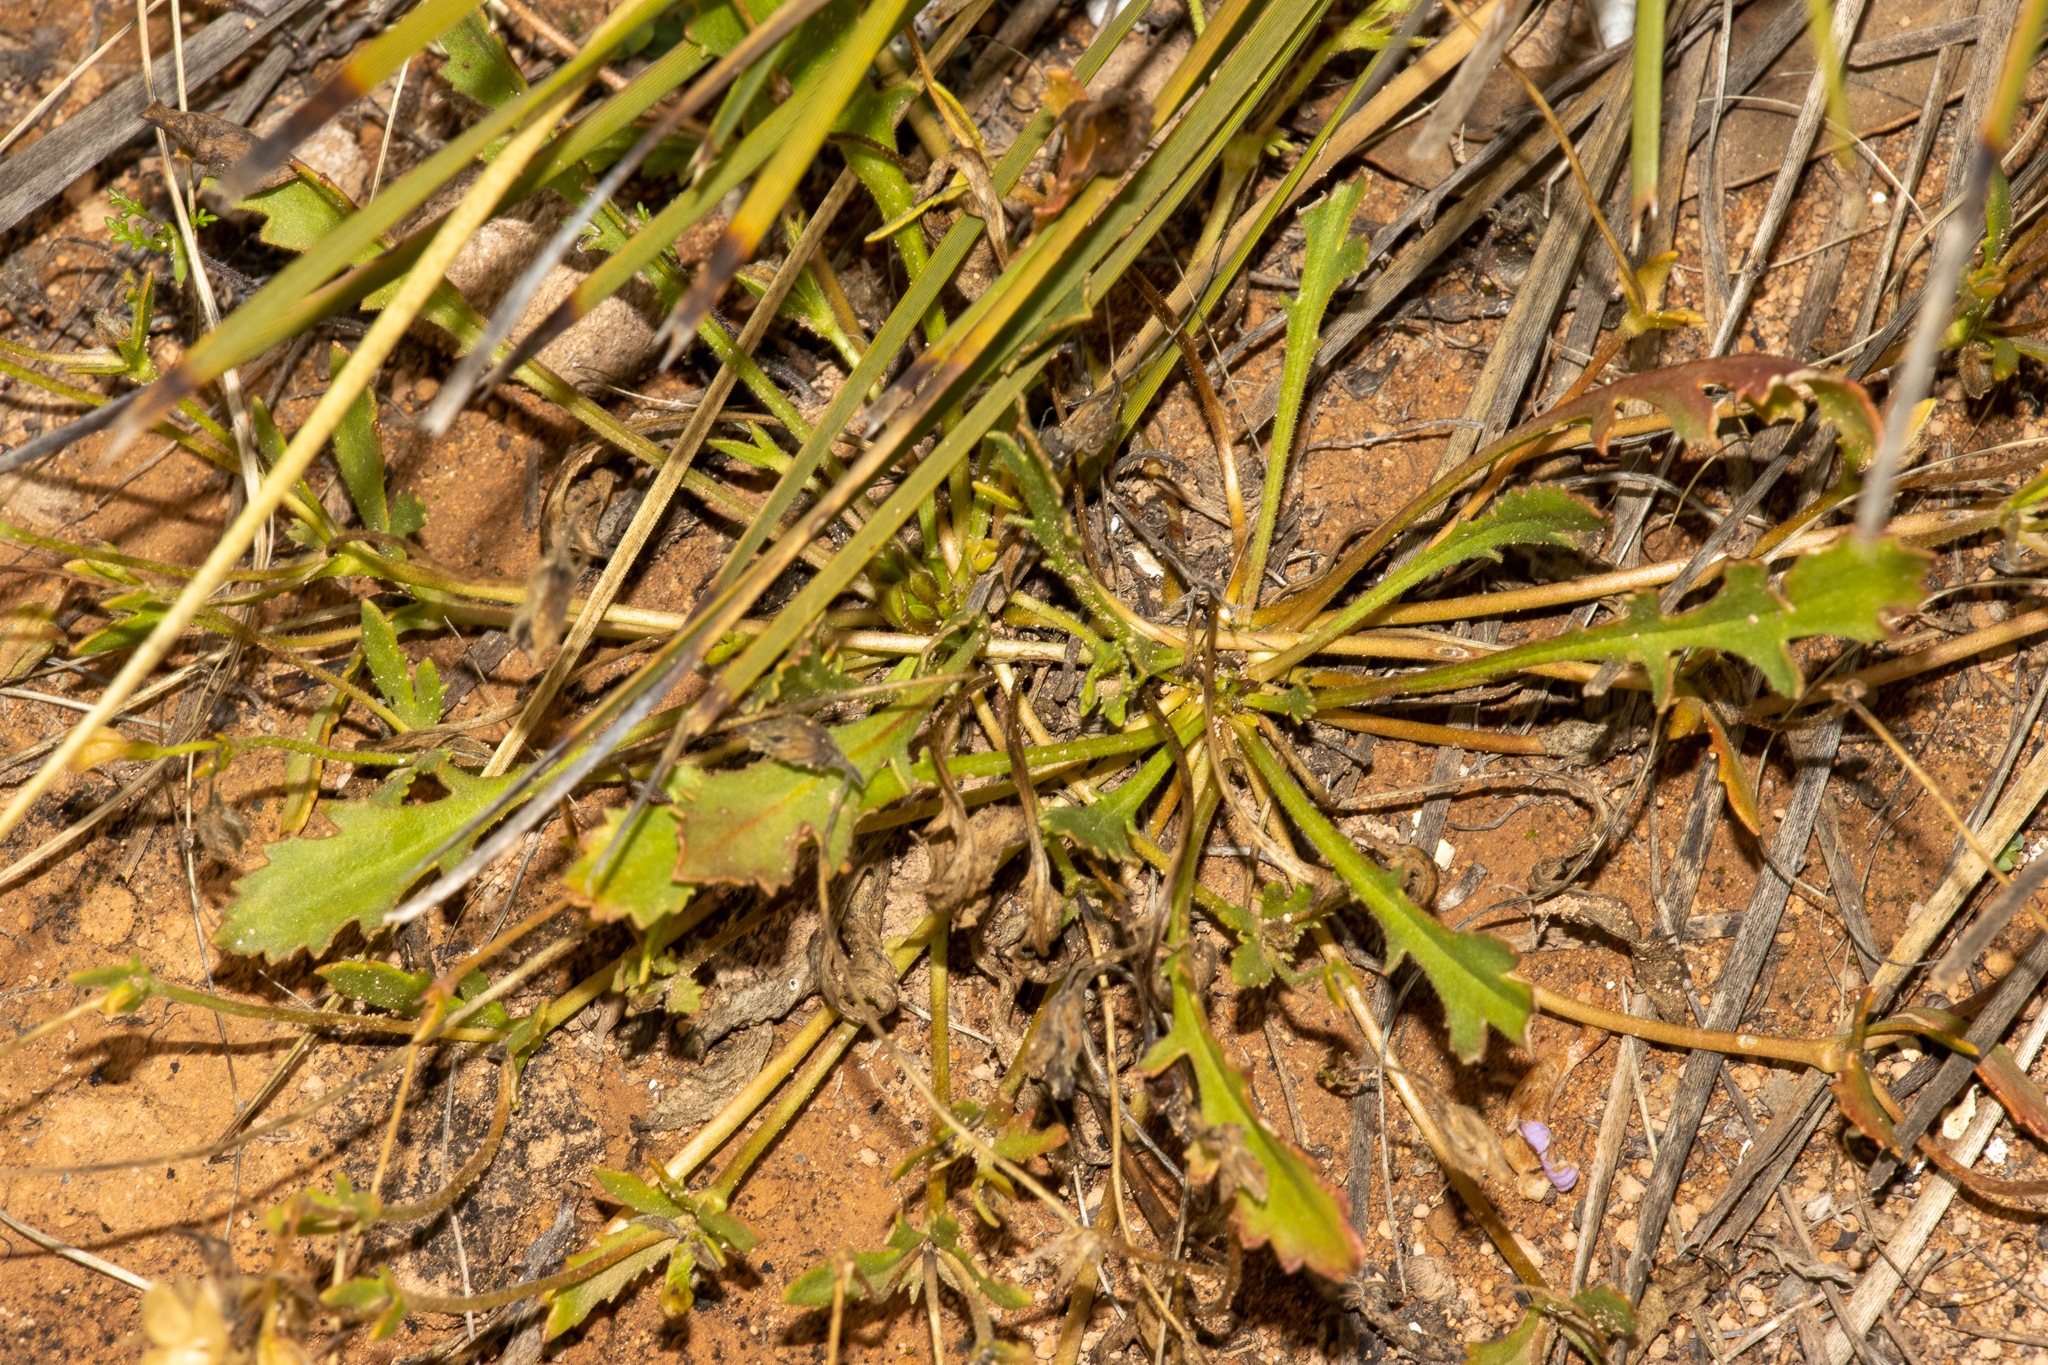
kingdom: Plantae
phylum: Tracheophyta
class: Magnoliopsida
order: Asterales
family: Goodeniaceae
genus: Goodenia
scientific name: Goodenia arguta
